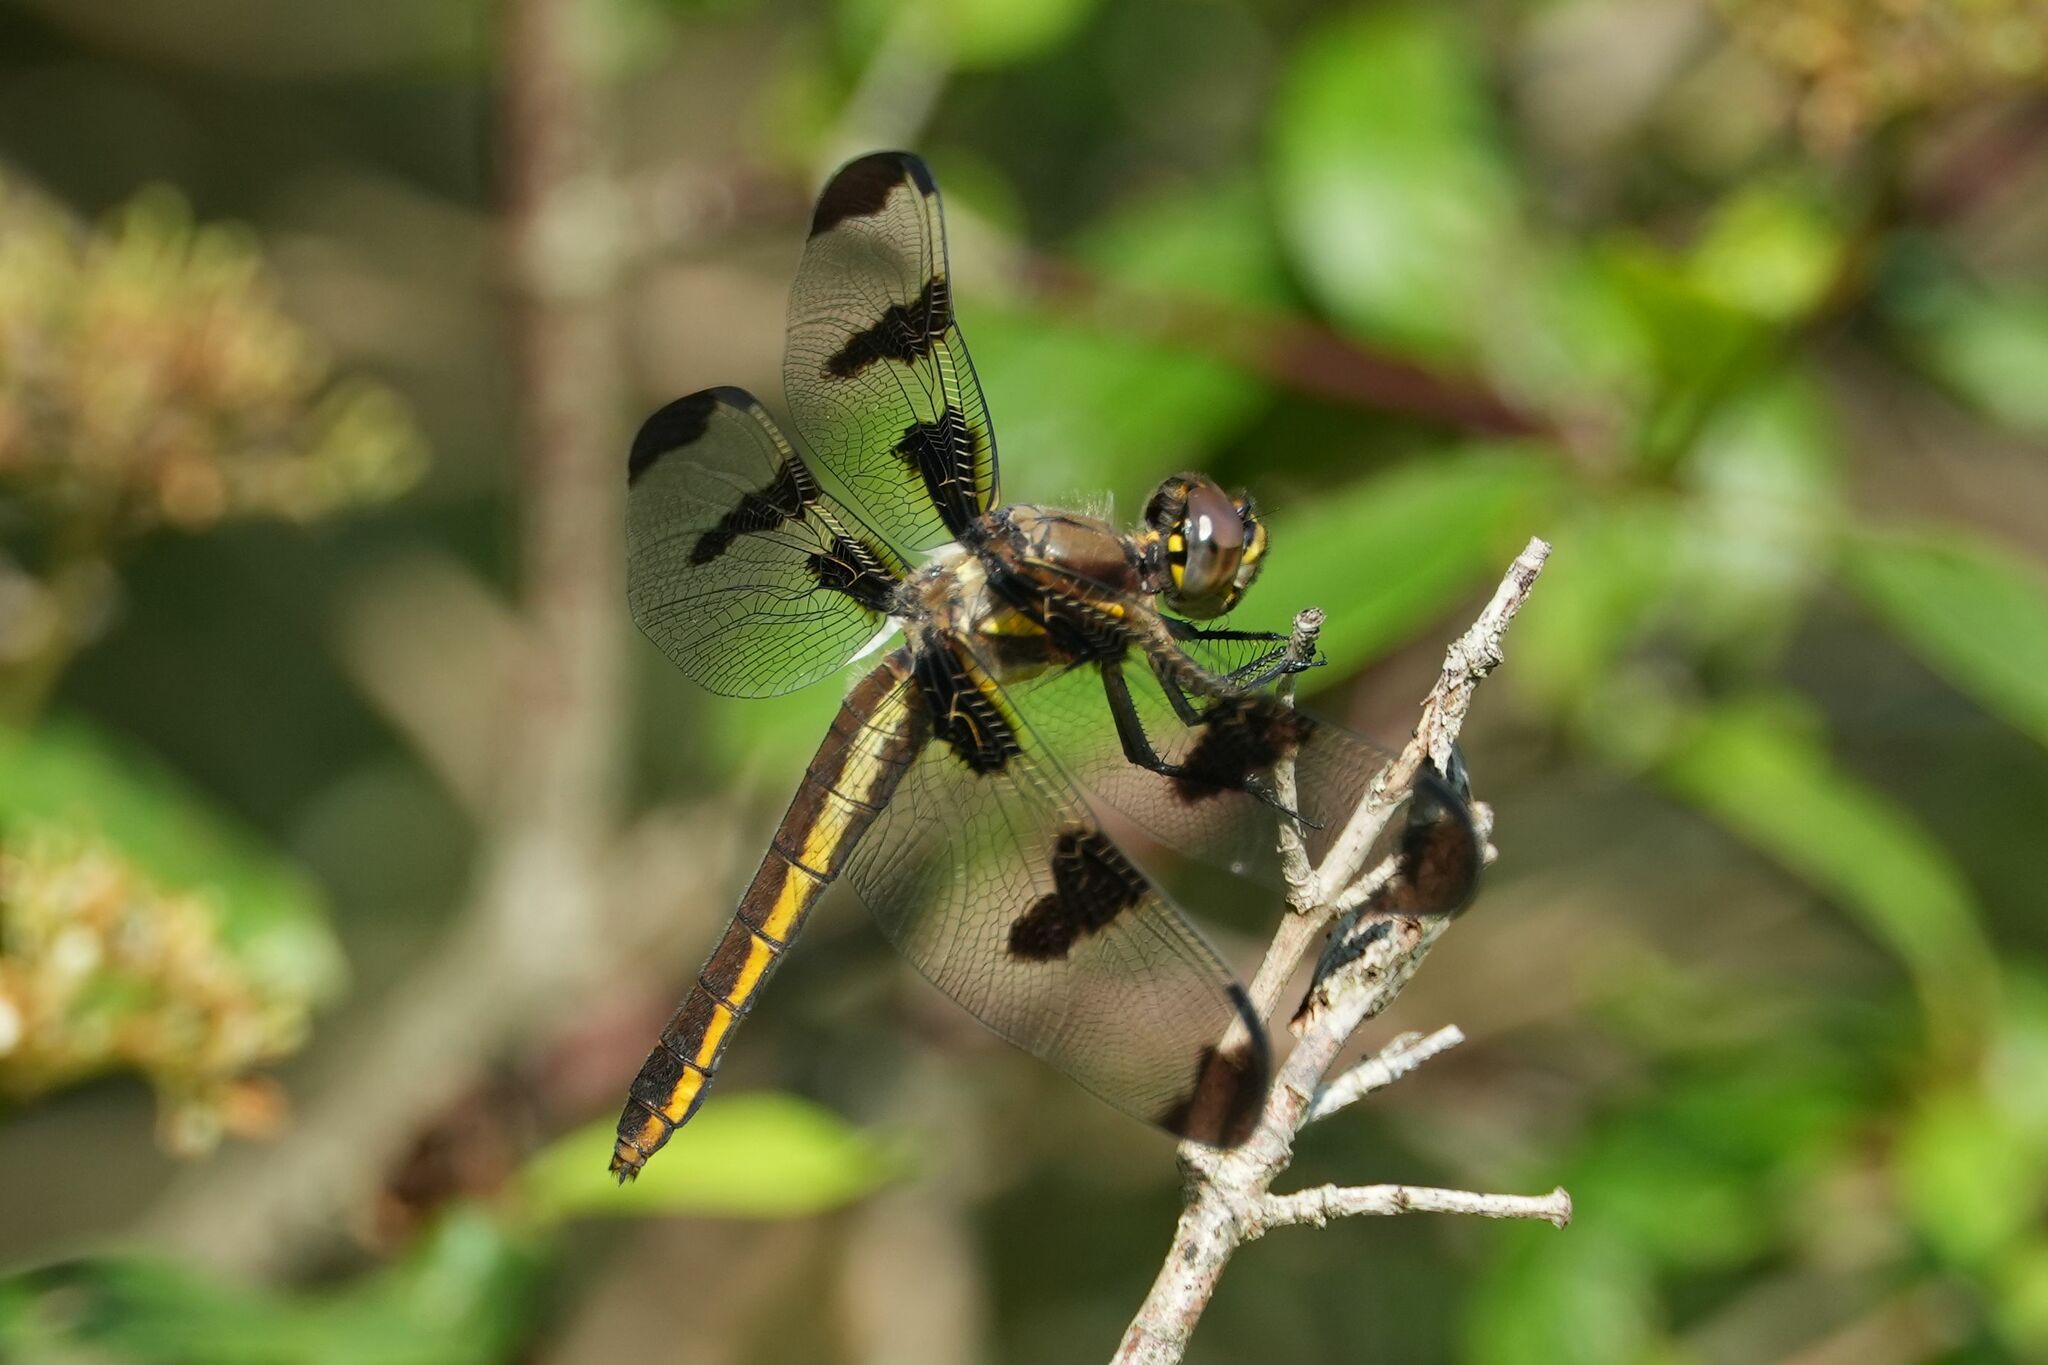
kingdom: Animalia
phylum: Arthropoda
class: Insecta
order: Odonata
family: Libellulidae
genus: Libellula
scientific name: Libellula pulchella
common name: Twelve-spotted skimmer
